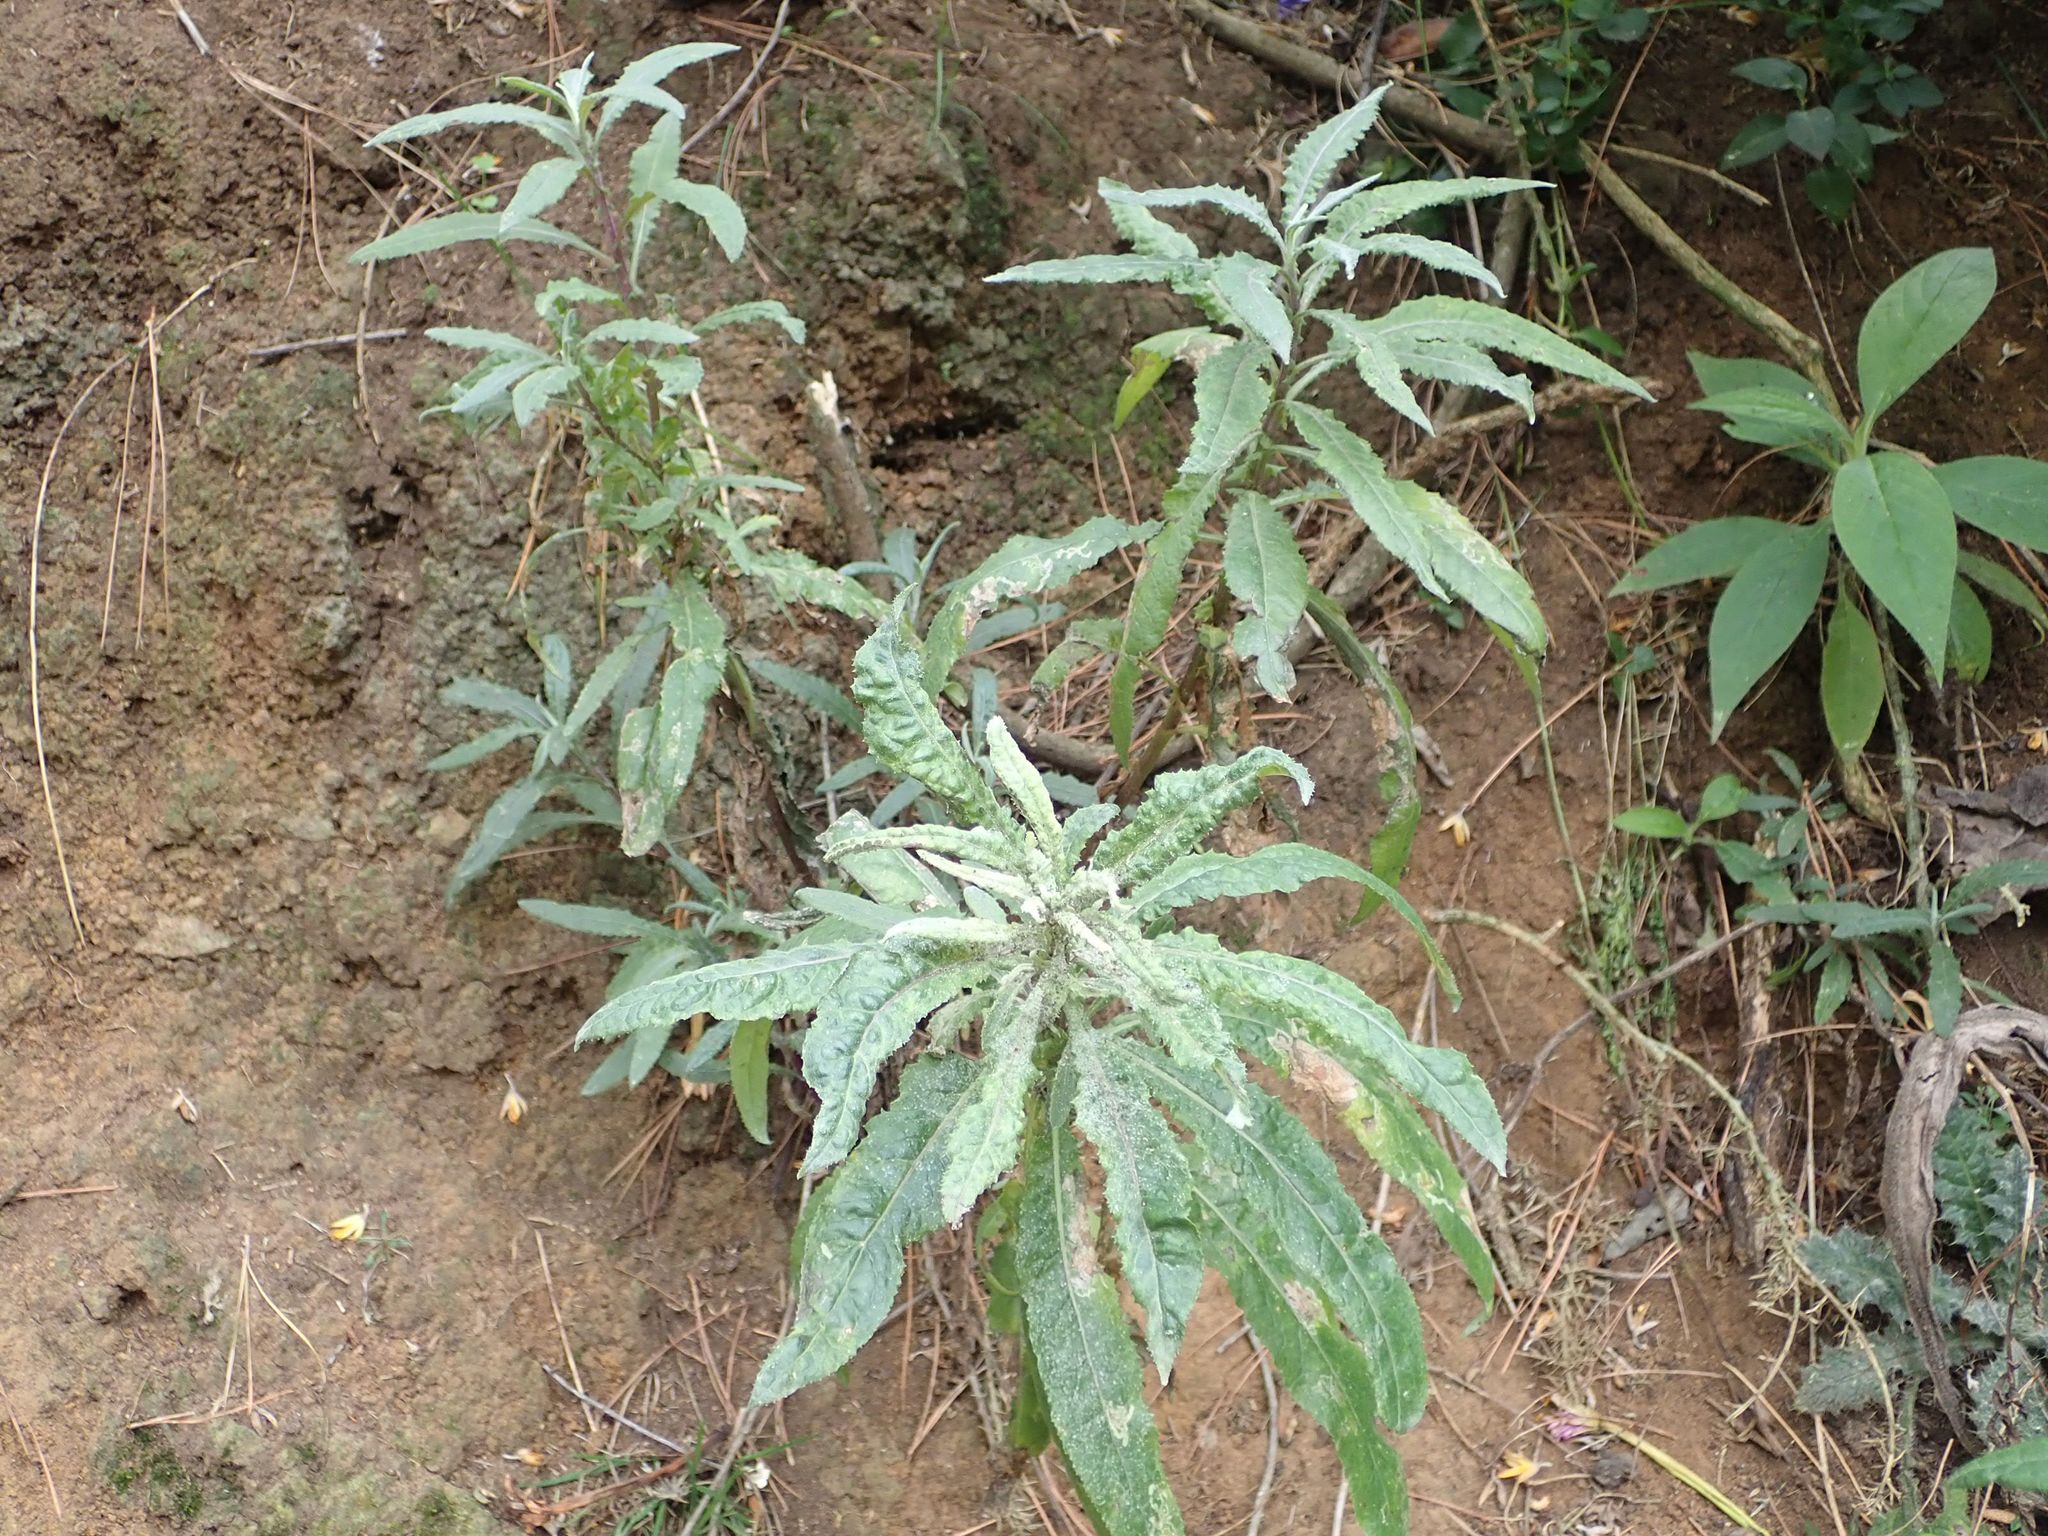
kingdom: Plantae
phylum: Tracheophyta
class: Magnoliopsida
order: Asterales
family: Asteraceae
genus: Senecio
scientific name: Senecio minimus
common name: Toothed fireweed
